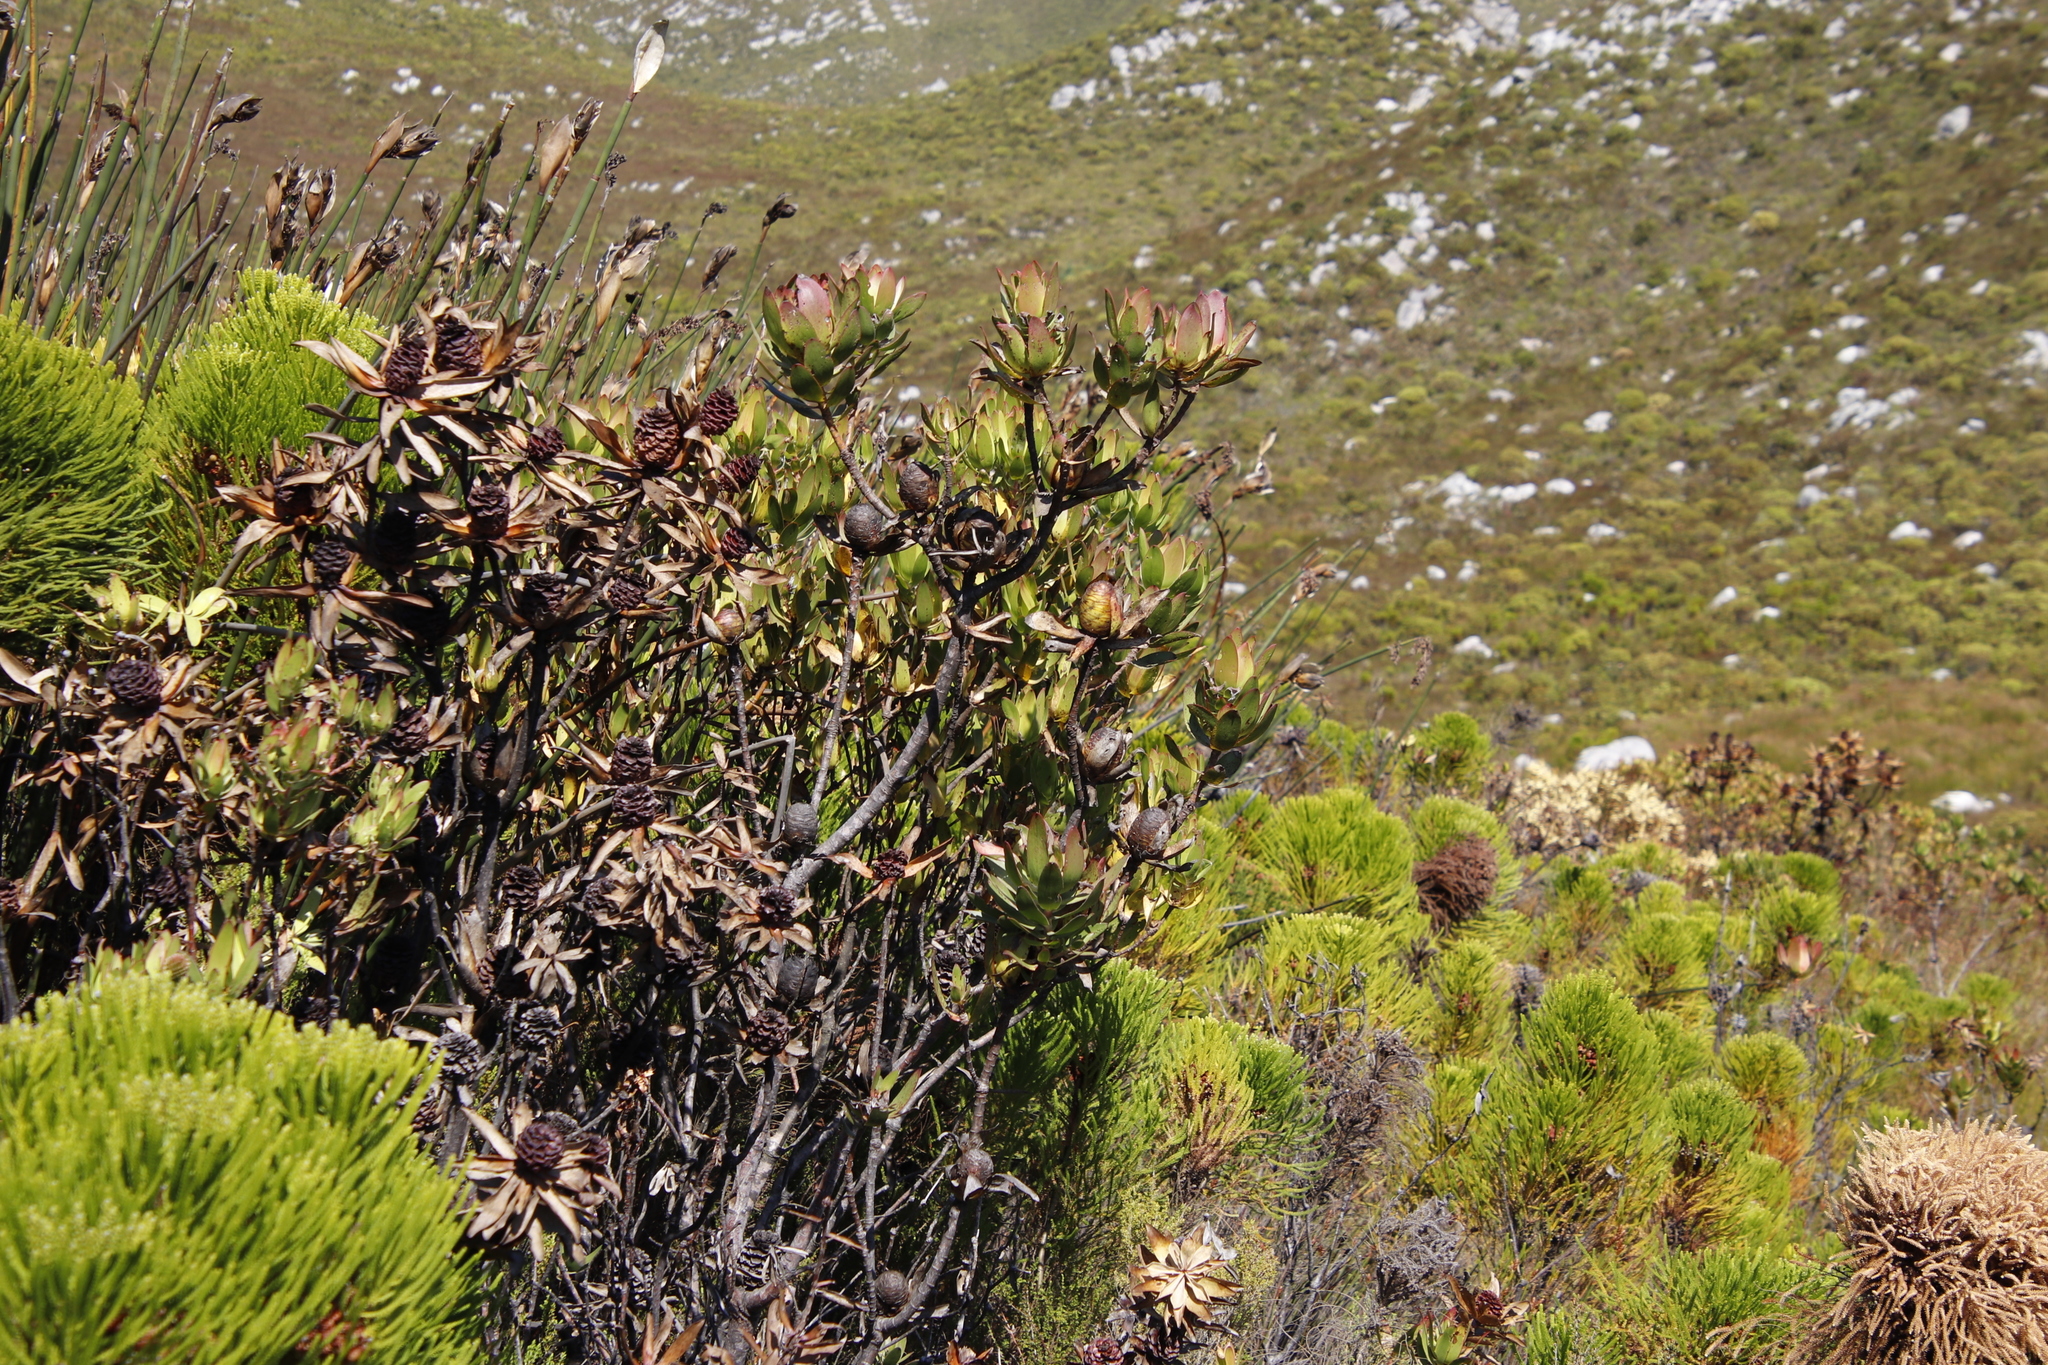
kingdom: Plantae
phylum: Tracheophyta
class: Magnoliopsida
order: Proteales
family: Proteaceae
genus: Leucadendron
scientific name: Leucadendron laureolum
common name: Golden sunshinebush
